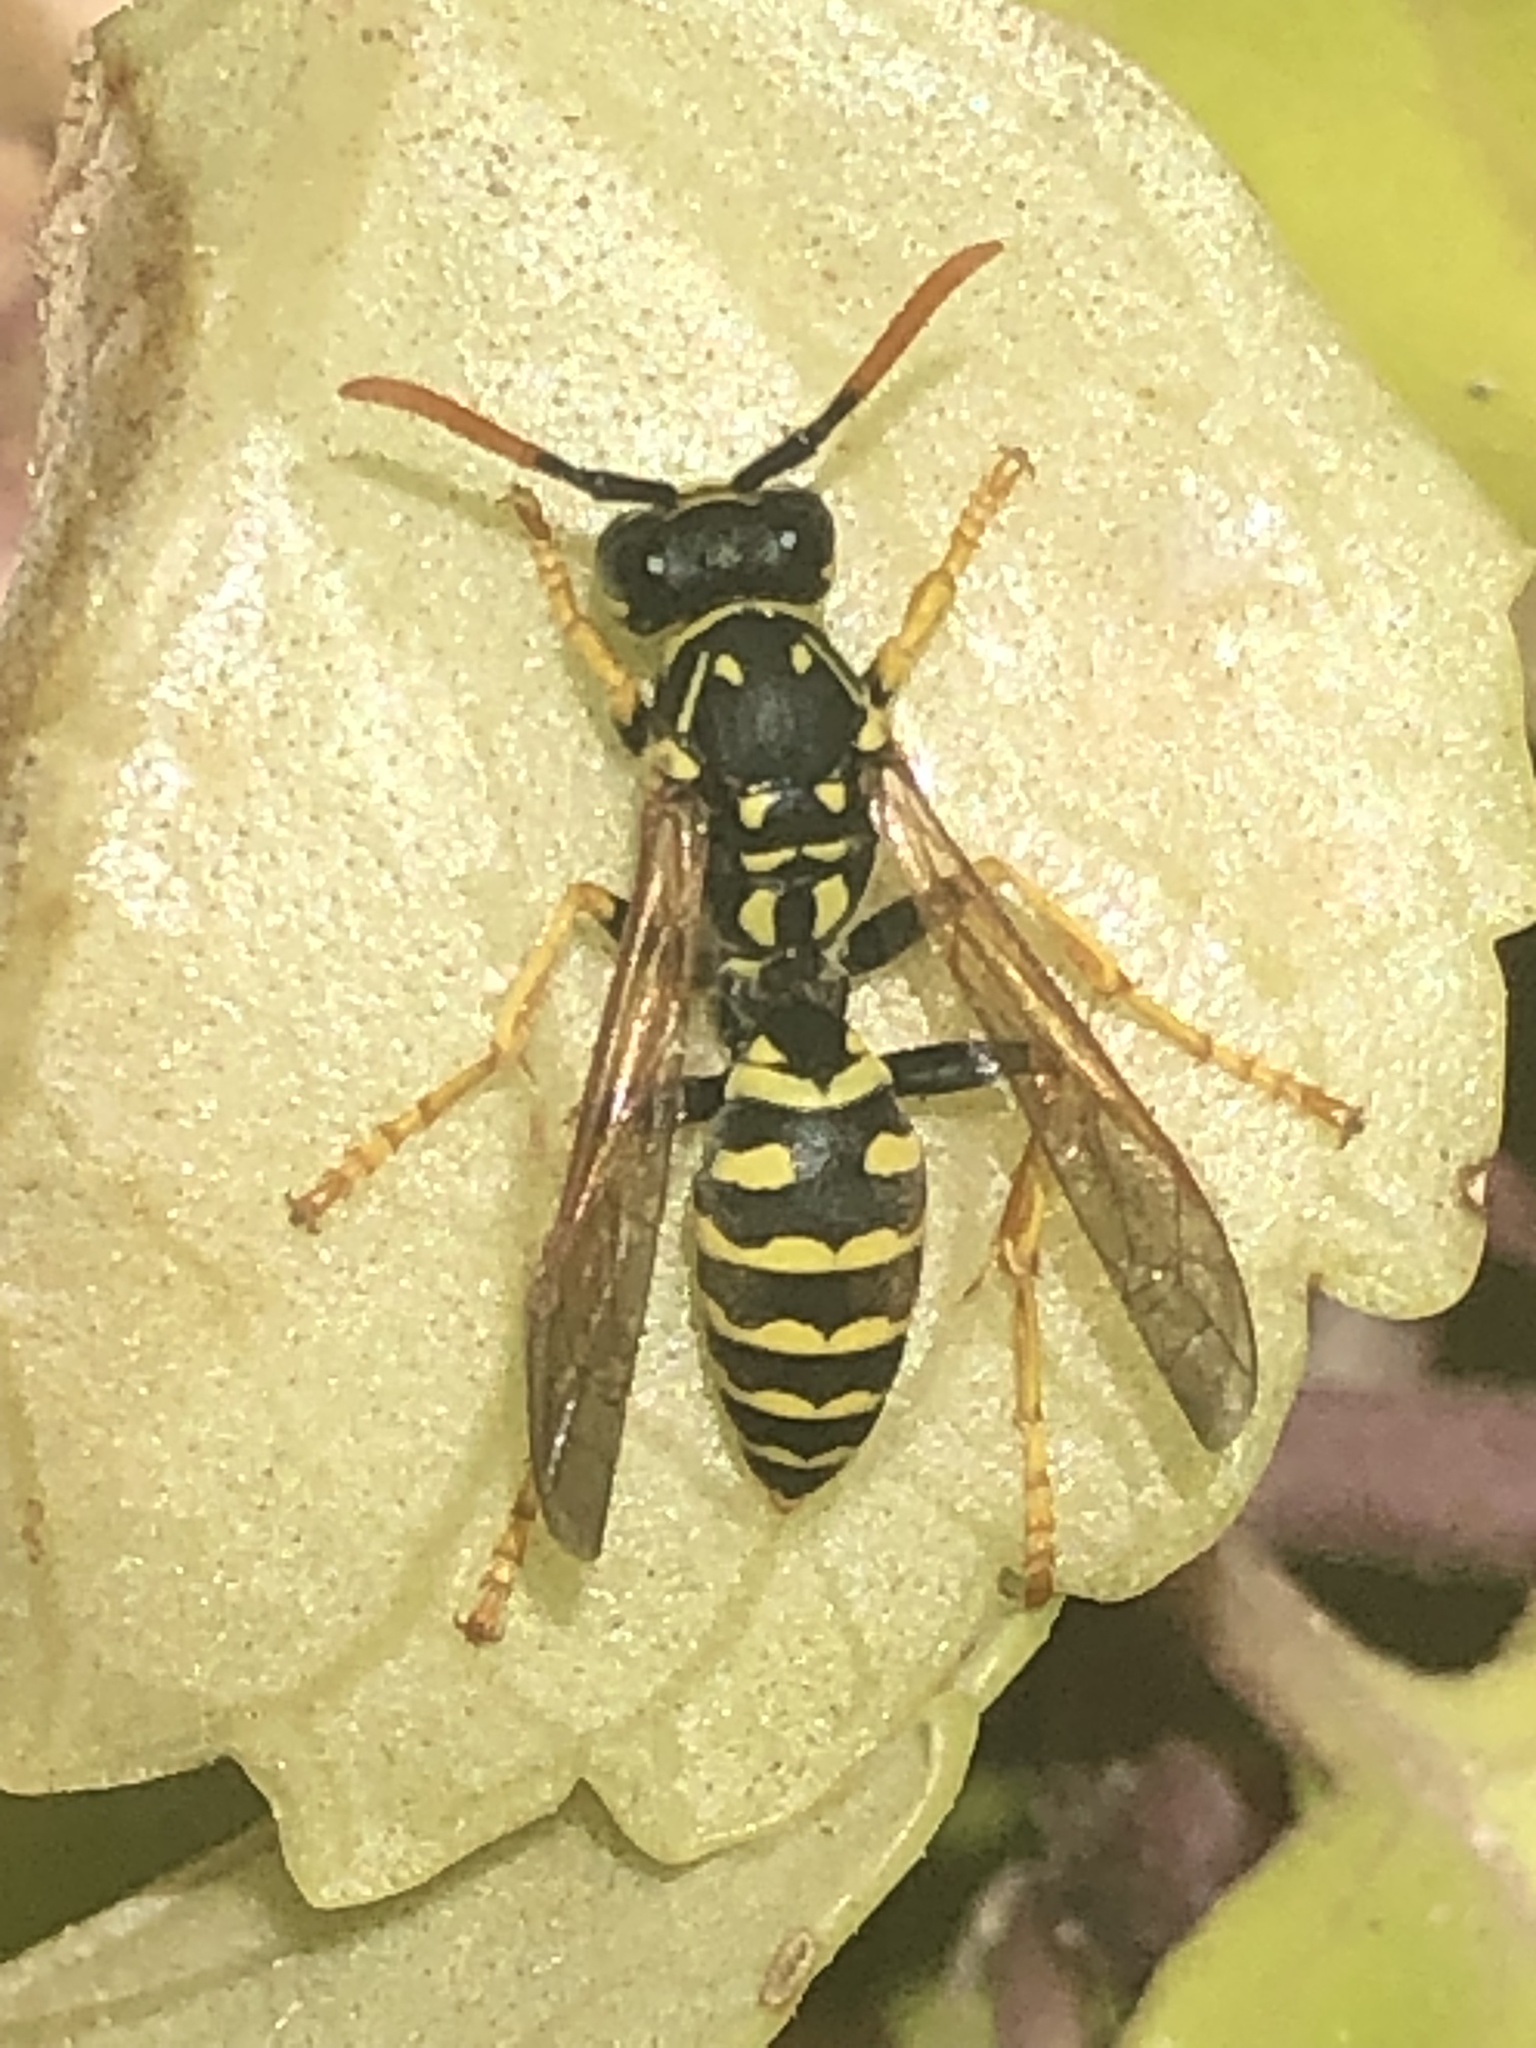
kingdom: Animalia
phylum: Arthropoda
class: Insecta
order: Hymenoptera
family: Eumenidae
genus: Polistes
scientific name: Polistes dominula
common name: Paper wasp
